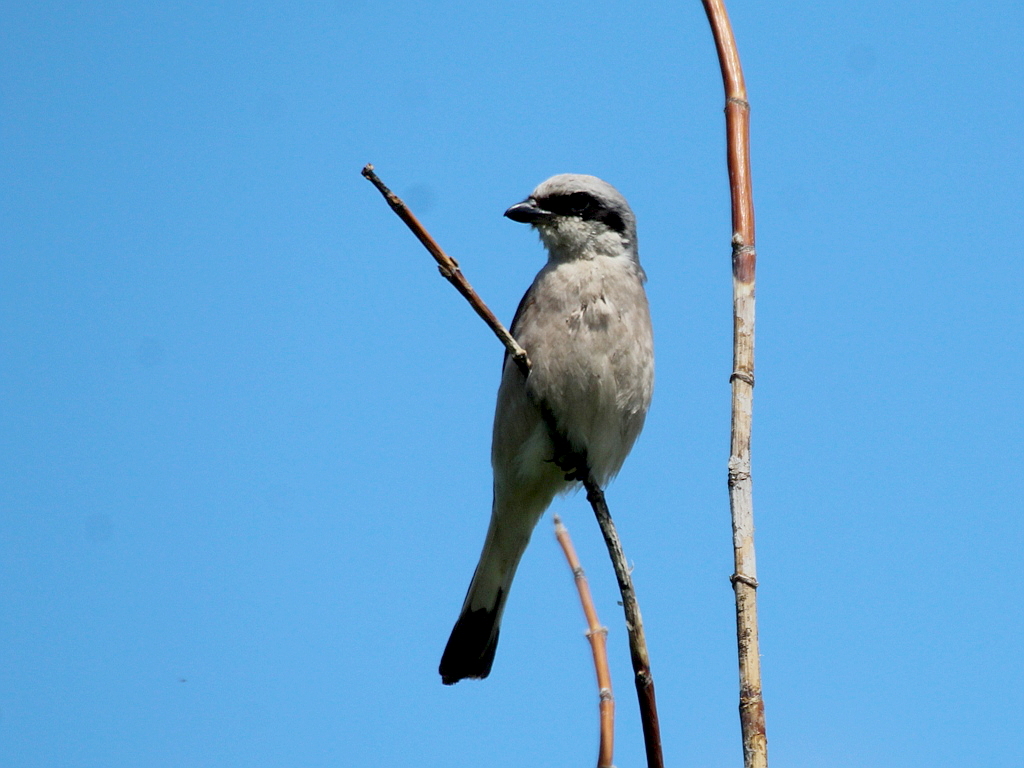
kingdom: Animalia
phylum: Chordata
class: Aves
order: Passeriformes
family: Laniidae
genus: Lanius
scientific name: Lanius collurio
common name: Red-backed shrike
